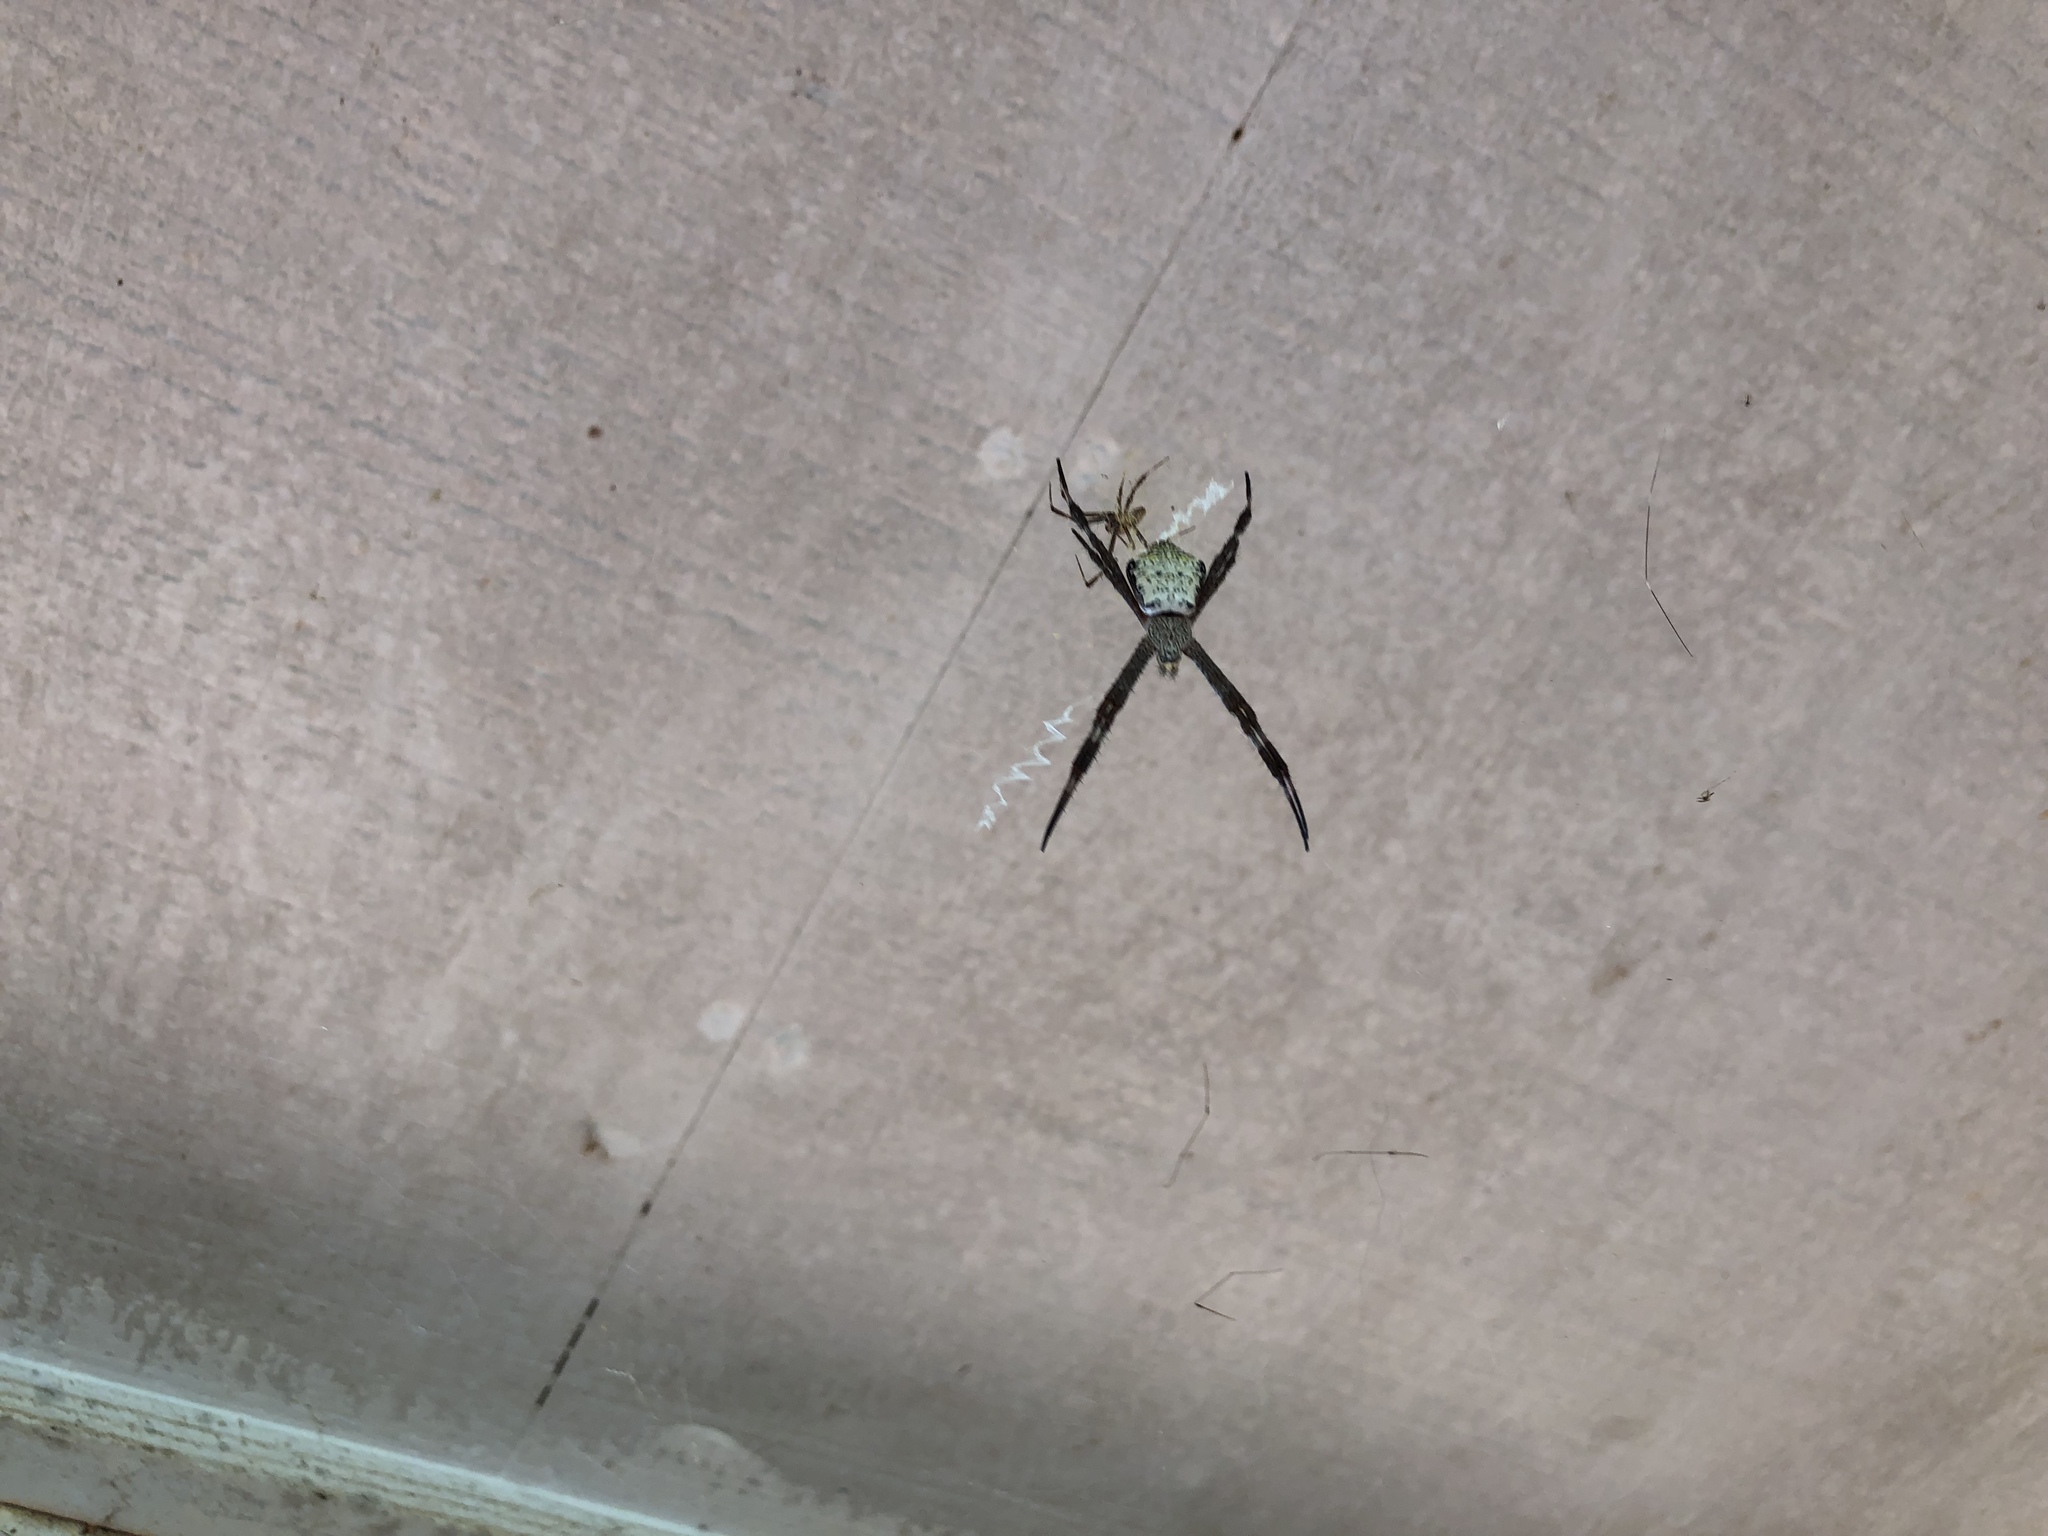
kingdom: Animalia
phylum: Arthropoda
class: Arachnida
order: Araneae
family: Araneidae
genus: Argiope
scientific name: Argiope appensa
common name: Garden spider
